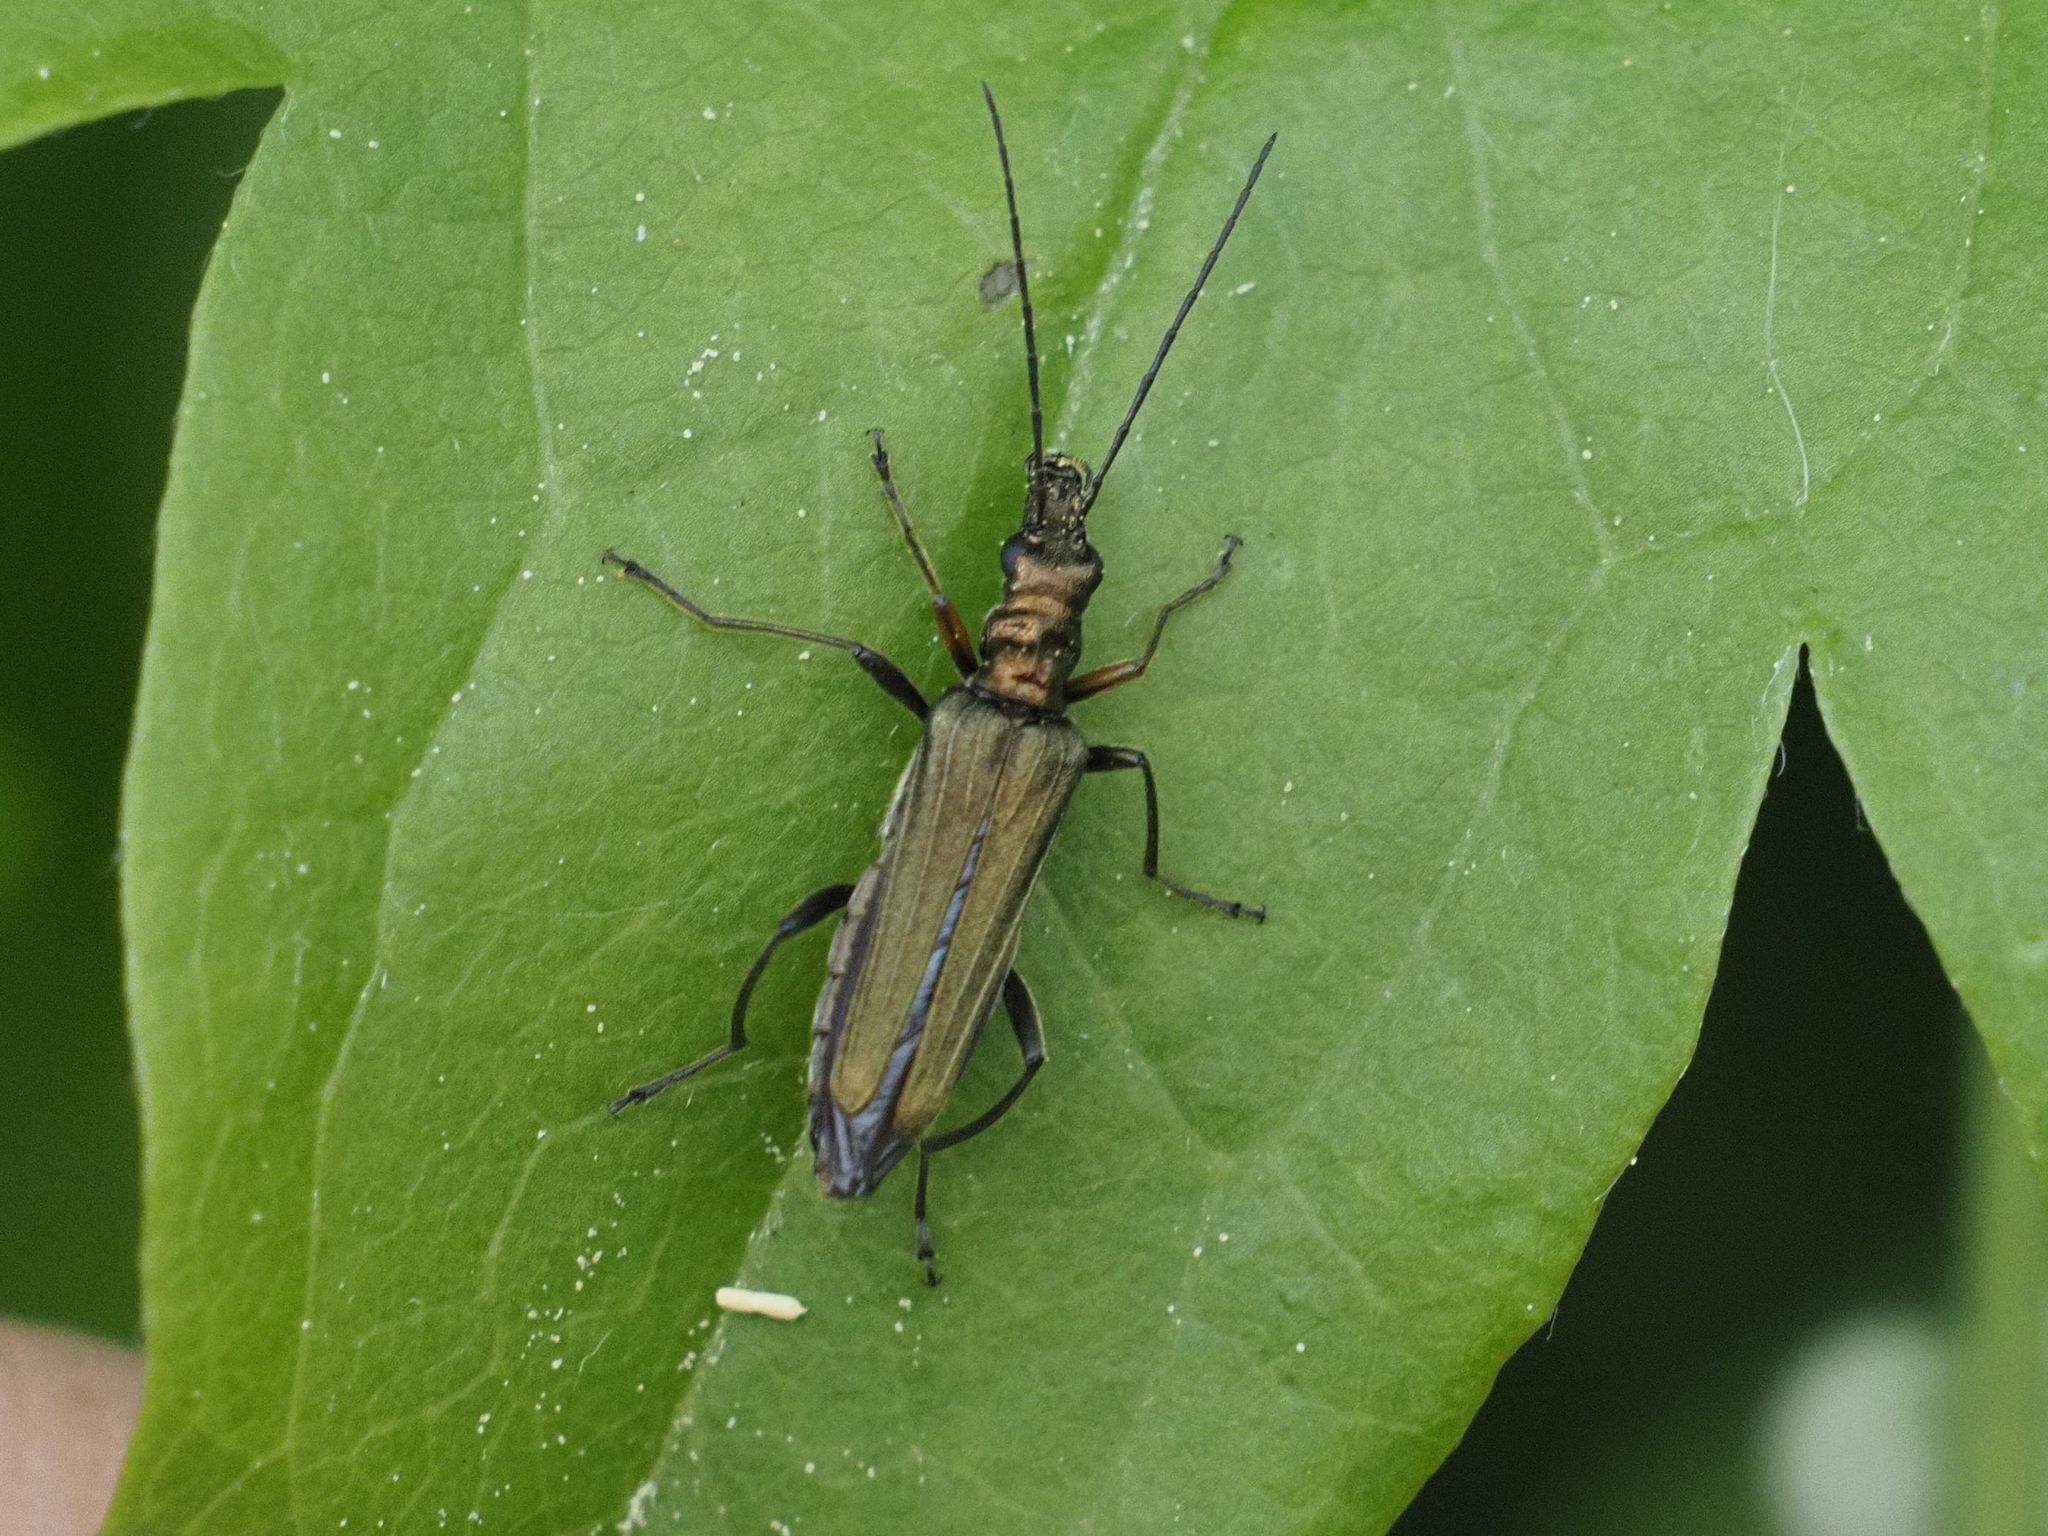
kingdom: Animalia
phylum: Arthropoda
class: Insecta
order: Coleoptera
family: Oedemeridae
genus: Oedemera
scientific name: Oedemera flavipes
